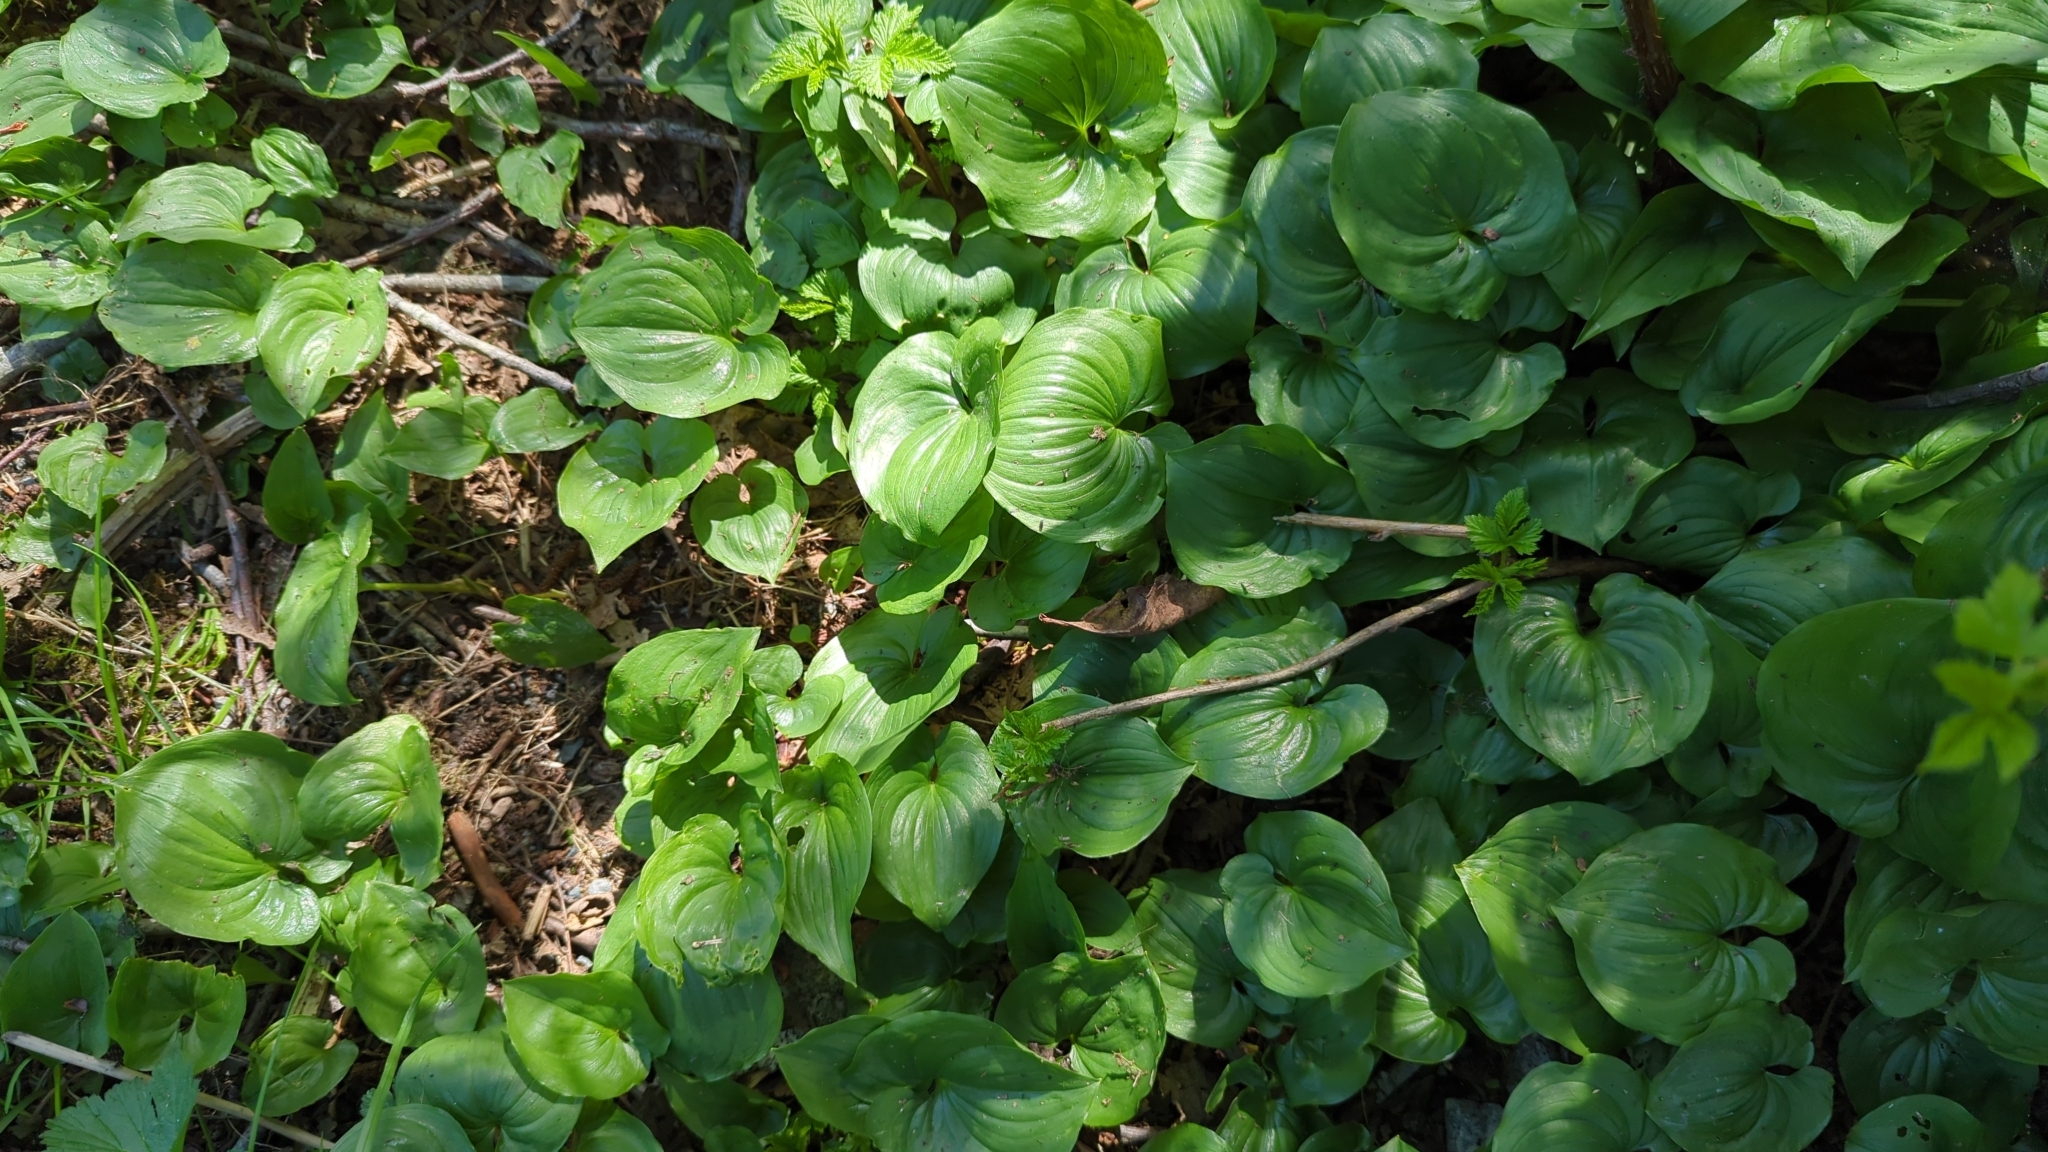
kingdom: Plantae
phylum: Tracheophyta
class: Liliopsida
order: Asparagales
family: Asparagaceae
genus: Maianthemum
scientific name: Maianthemum dilatatum
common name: False lily-of-the-valley
